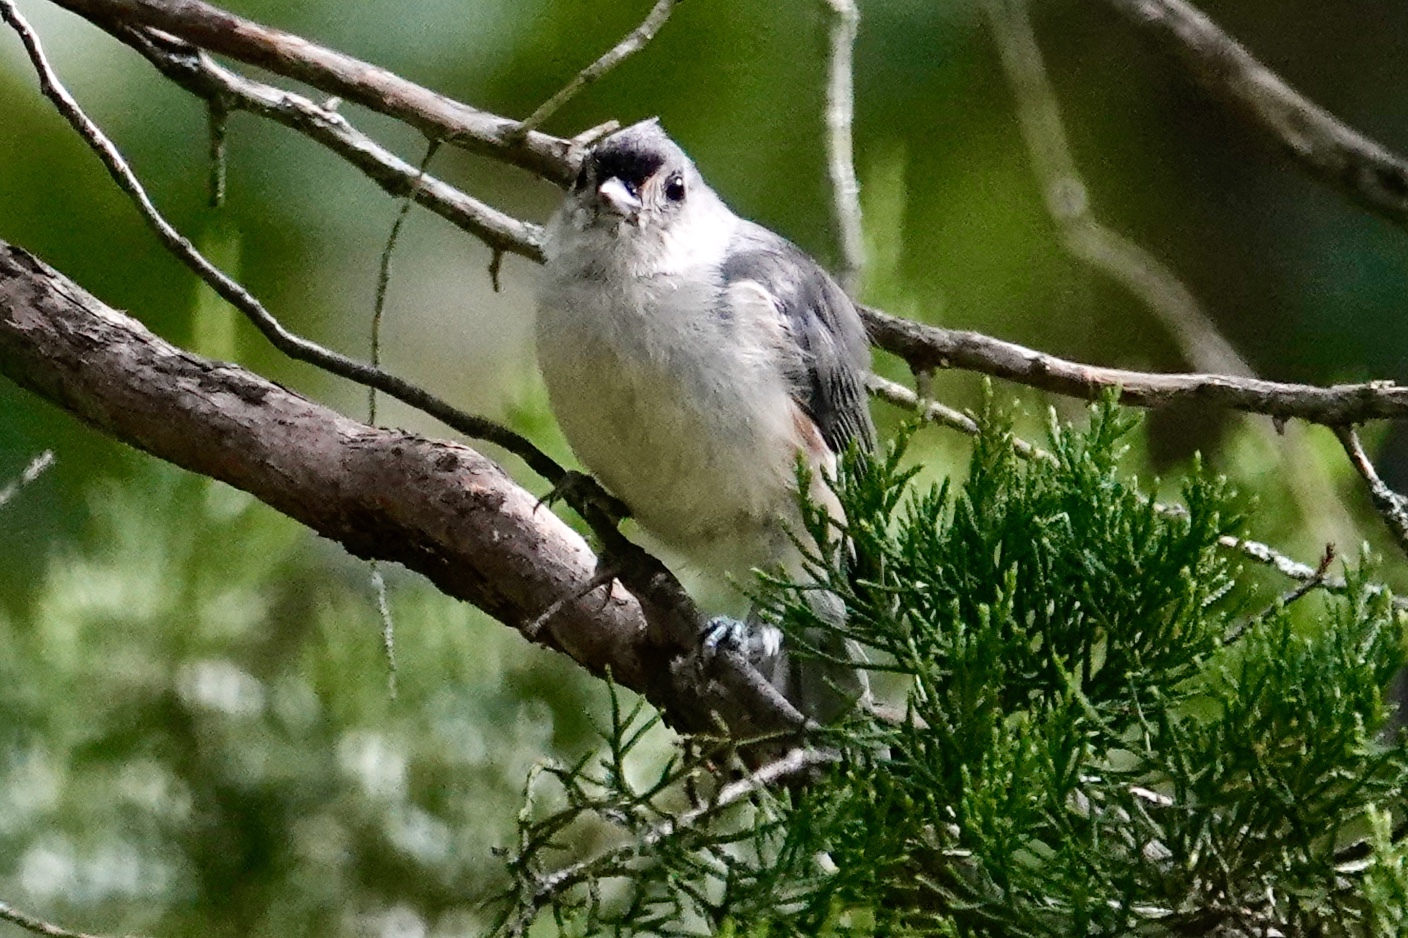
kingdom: Animalia
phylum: Chordata
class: Aves
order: Passeriformes
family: Paridae
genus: Baeolophus
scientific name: Baeolophus bicolor
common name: Tufted titmouse
